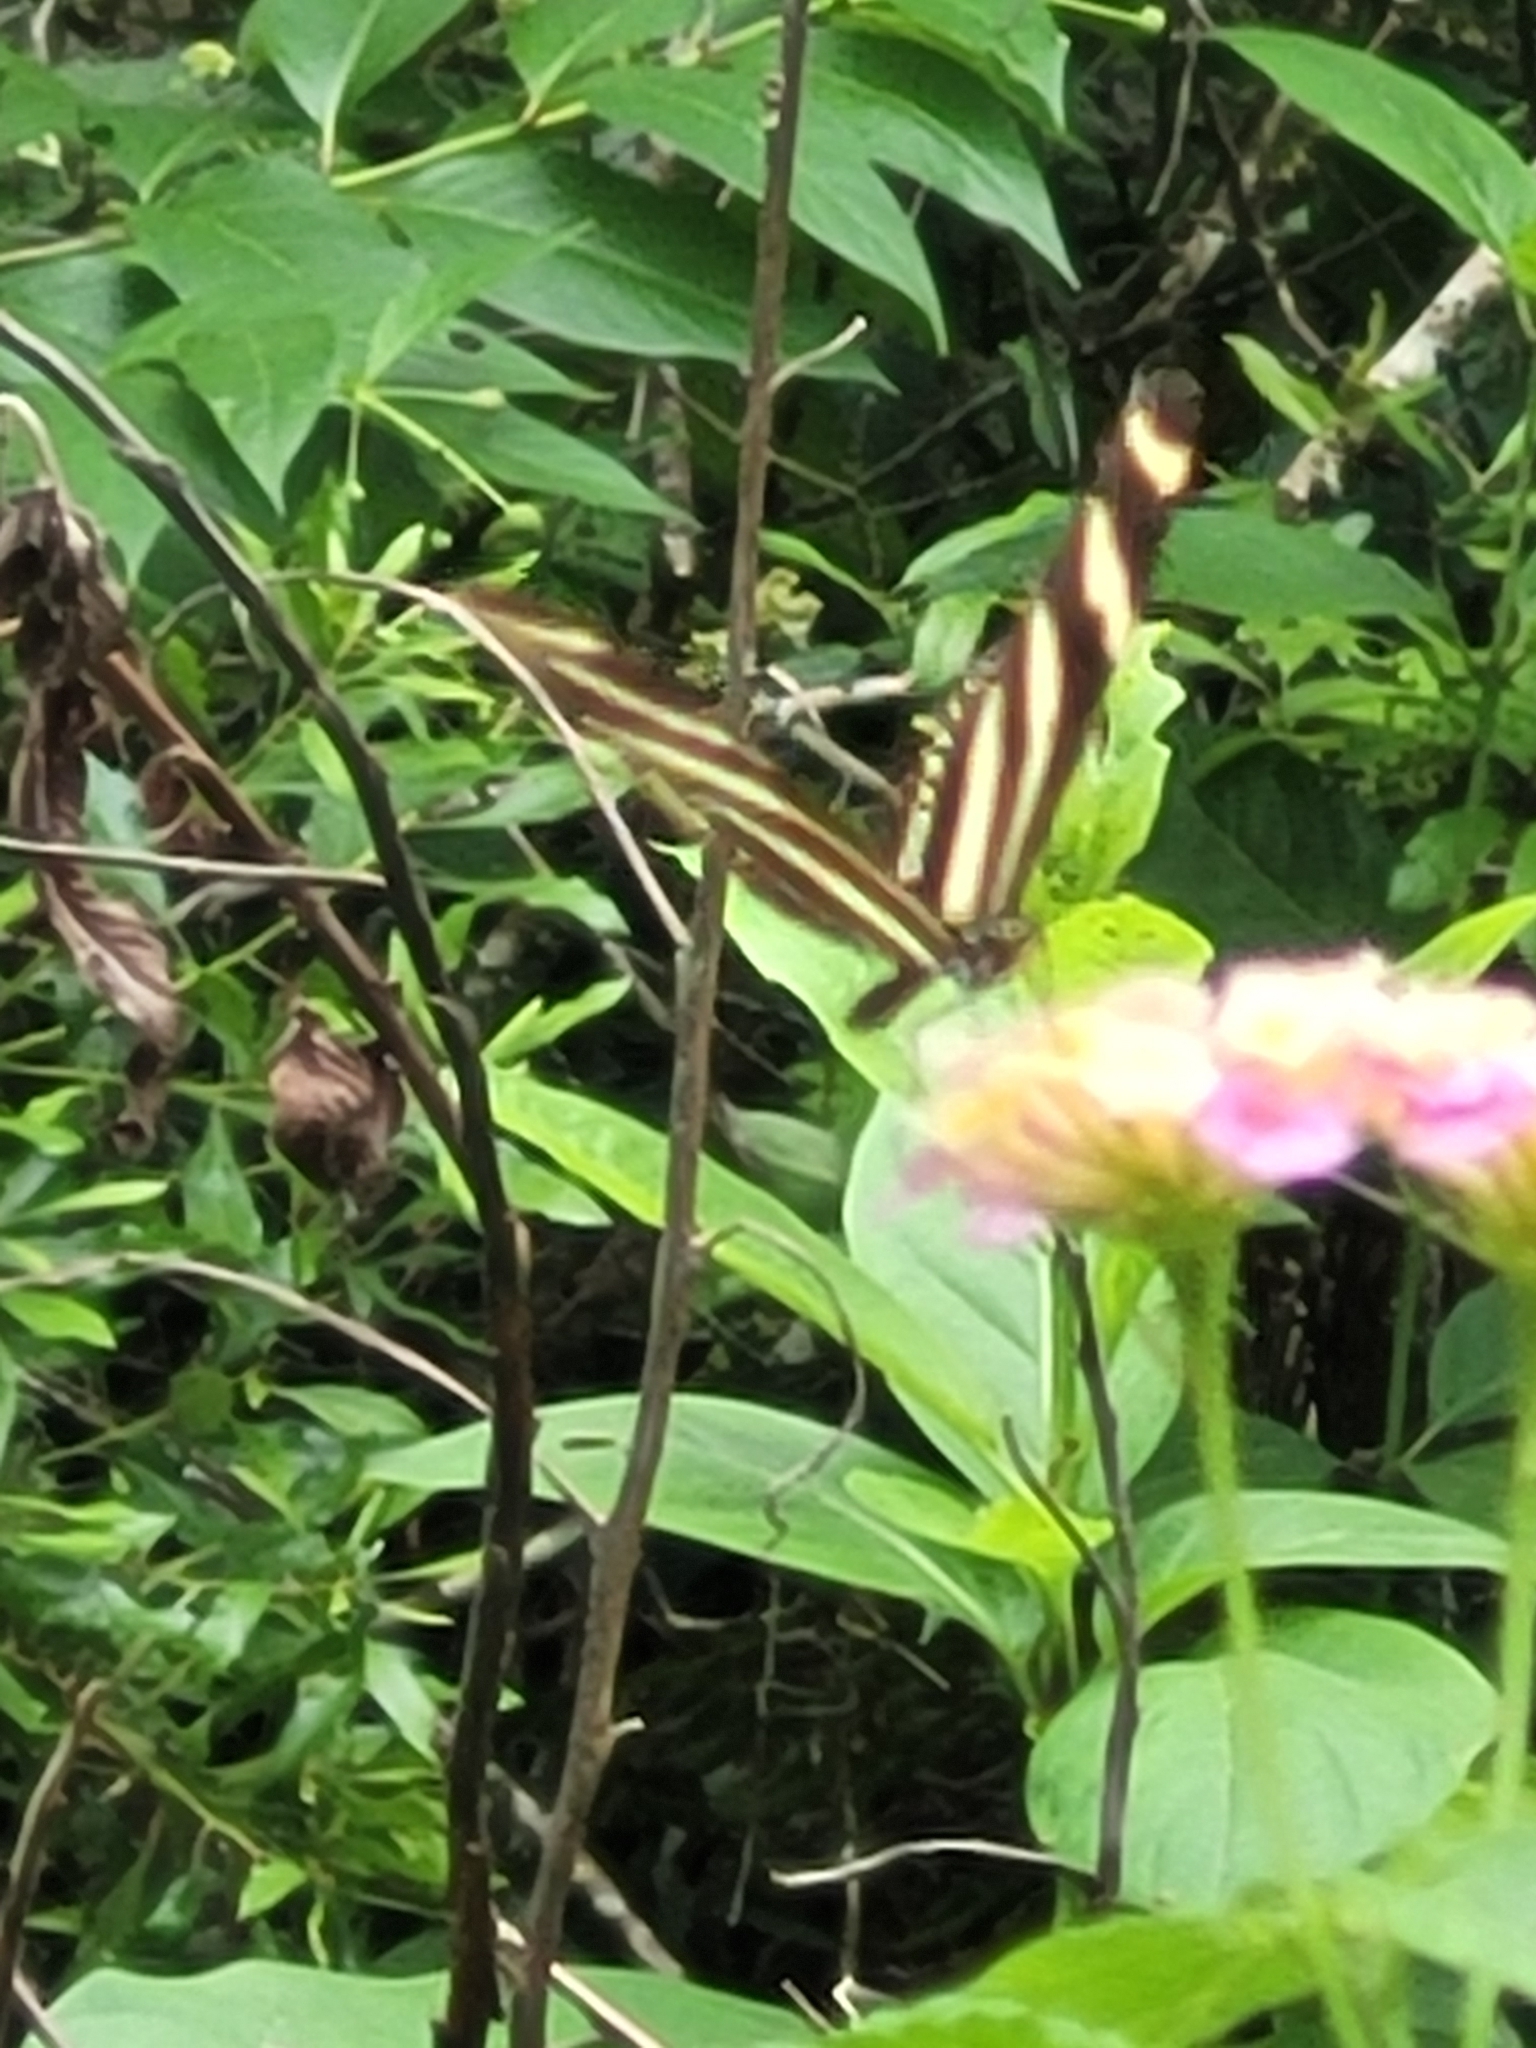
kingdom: Animalia
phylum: Arthropoda
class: Insecta
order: Lepidoptera
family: Nymphalidae
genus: Heliconius
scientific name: Heliconius charithonia
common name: Zebra long wing
